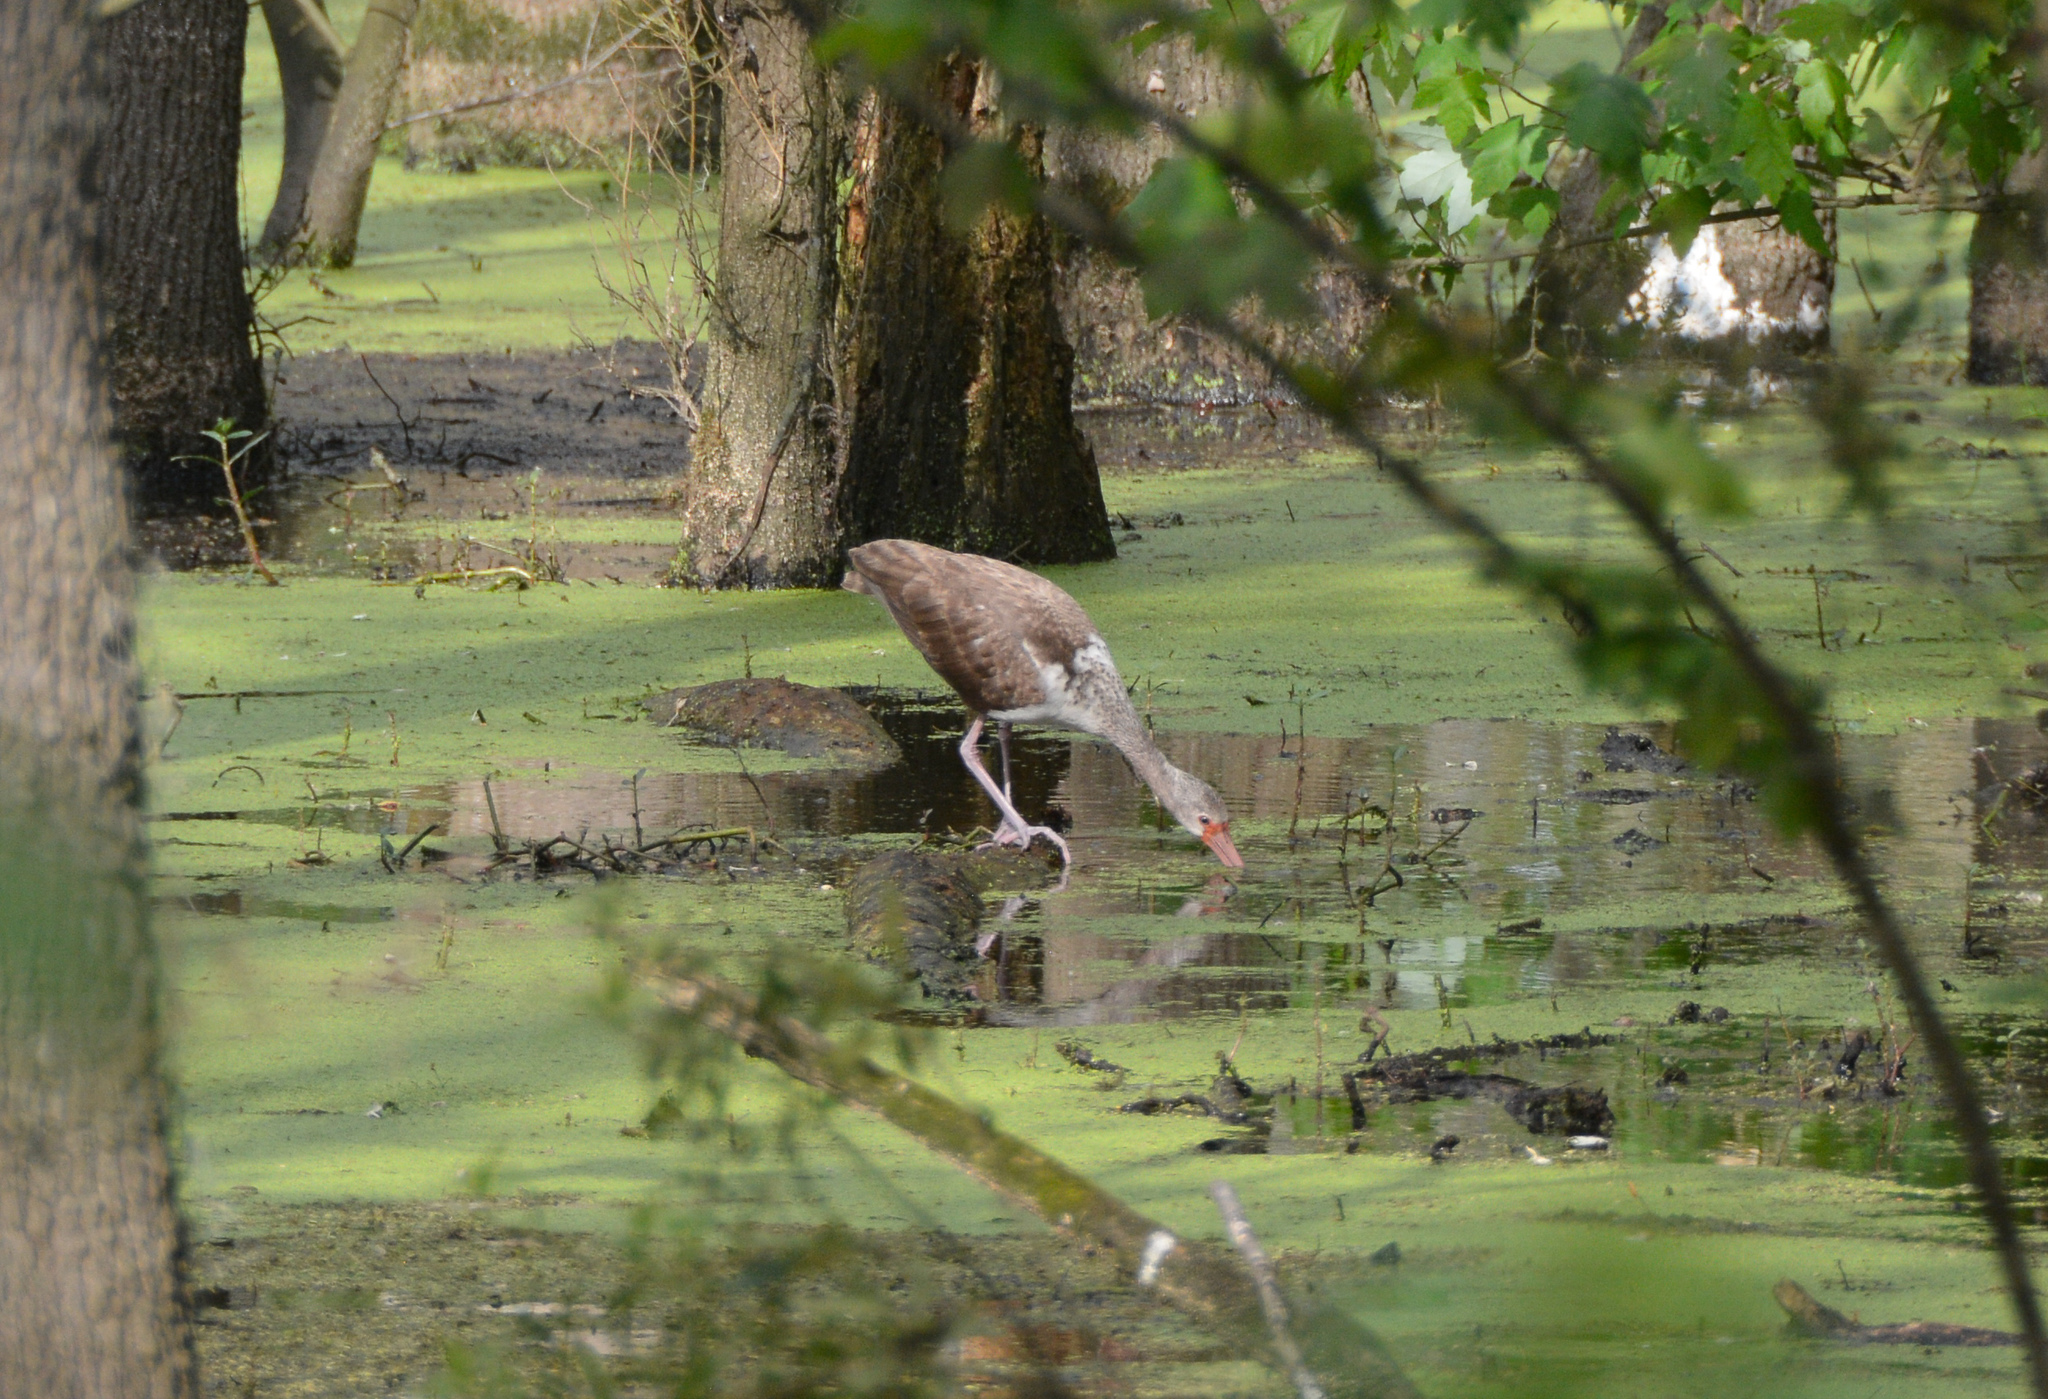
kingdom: Animalia
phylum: Chordata
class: Aves
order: Pelecaniformes
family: Threskiornithidae
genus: Eudocimus
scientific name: Eudocimus albus
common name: White ibis
